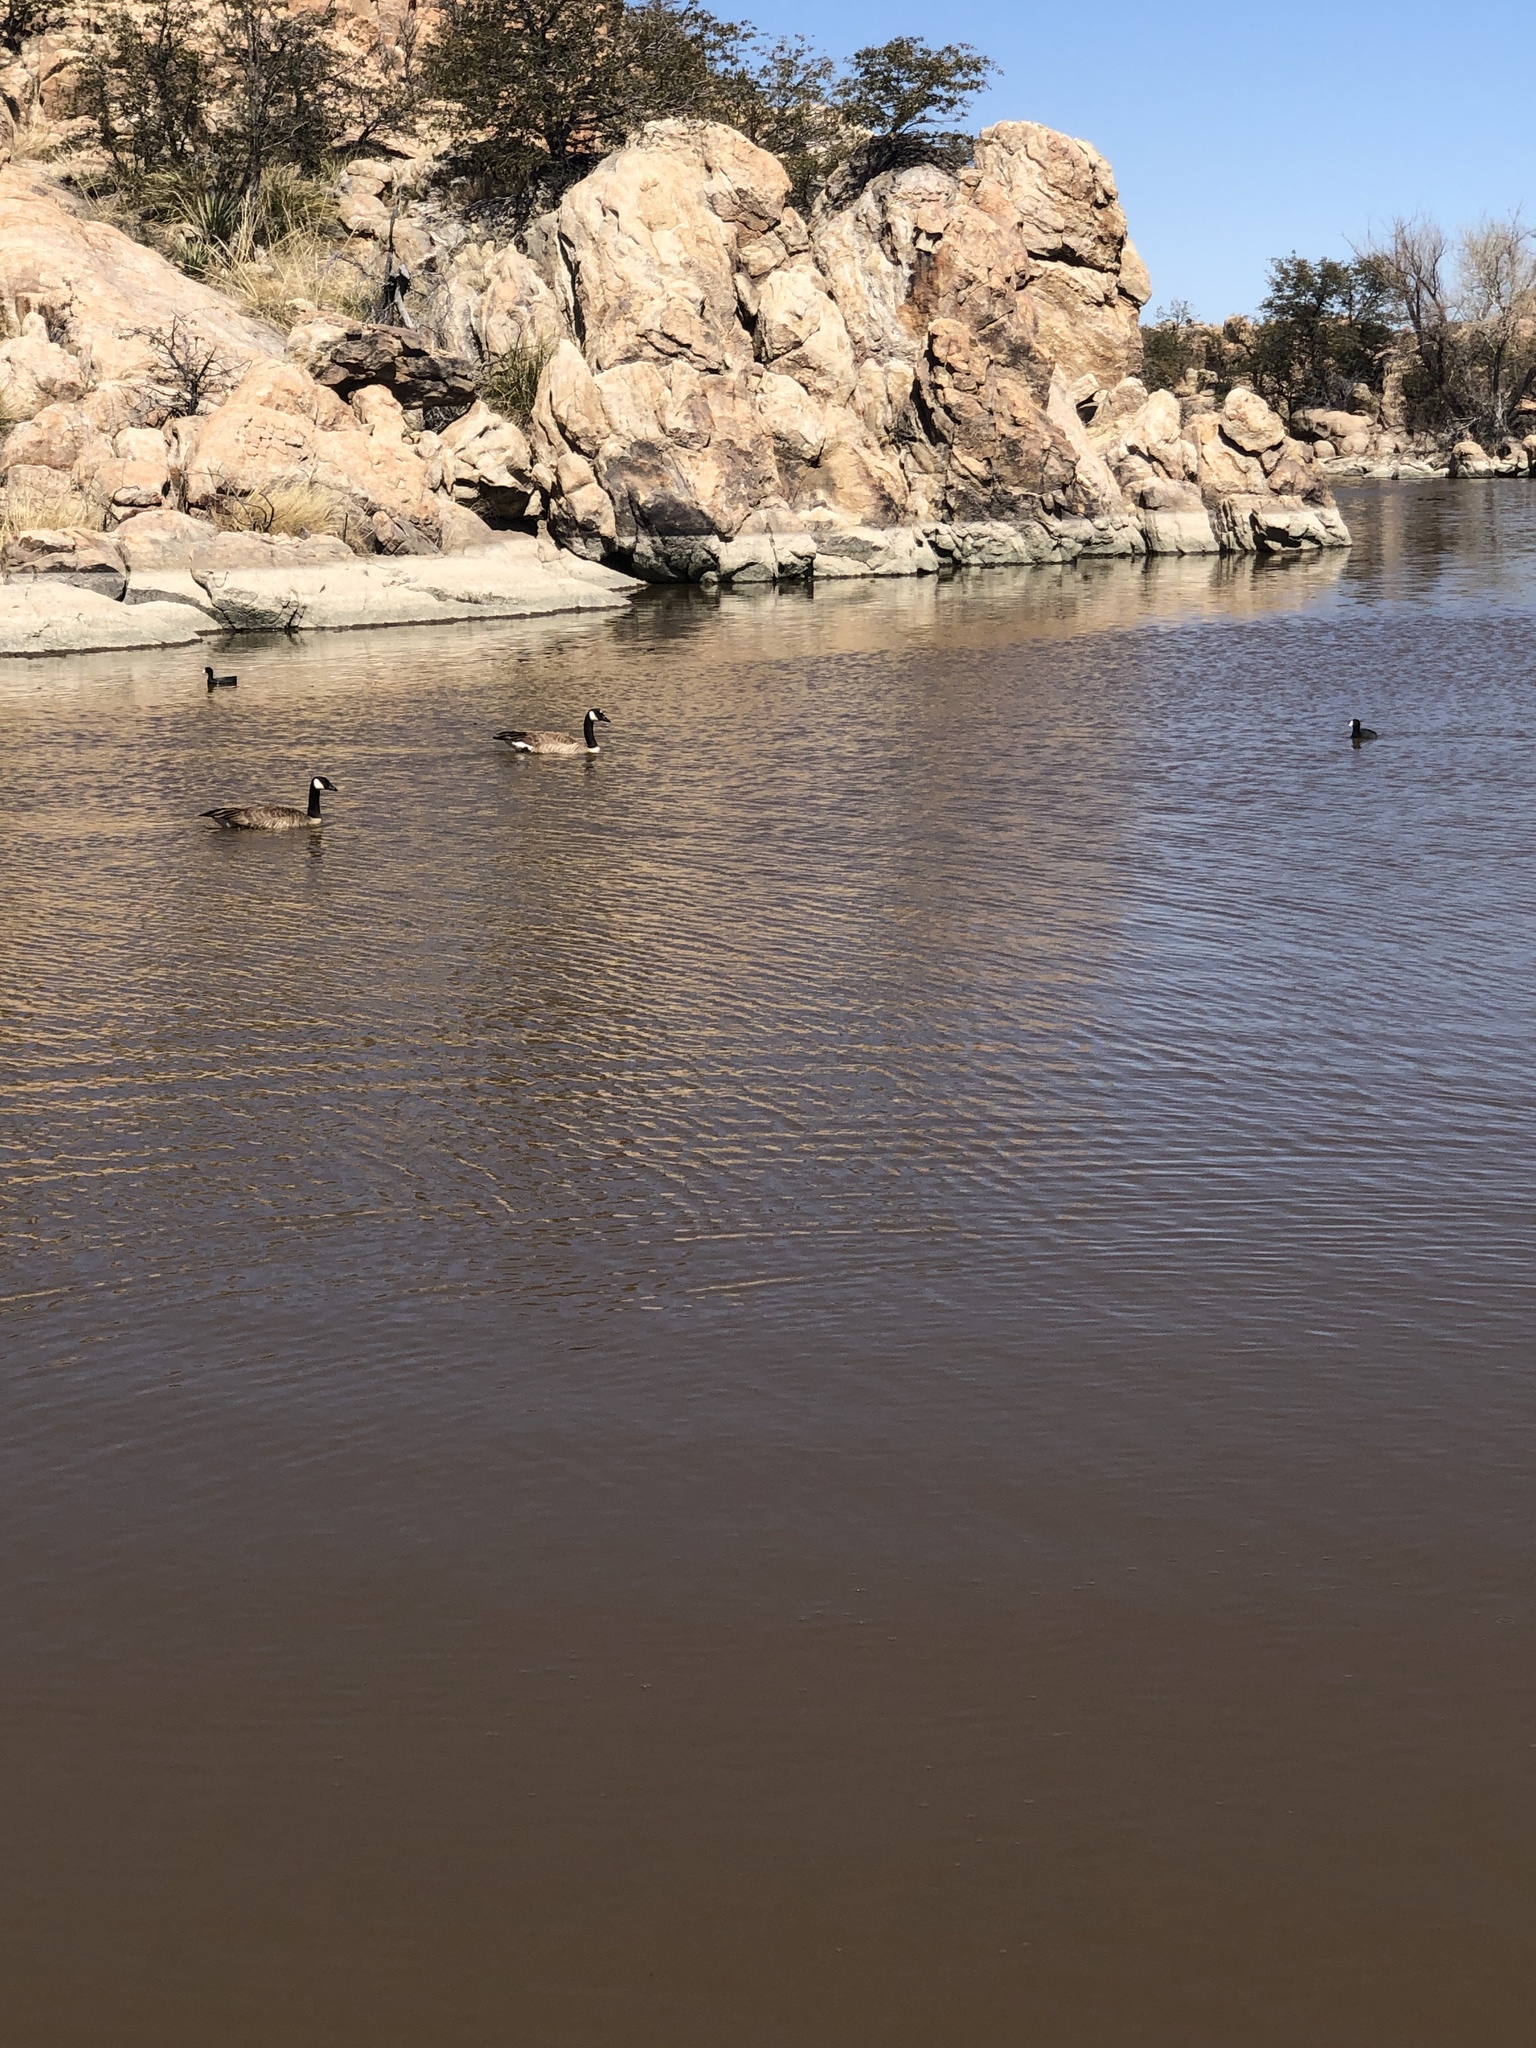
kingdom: Animalia
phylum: Chordata
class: Aves
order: Anseriformes
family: Anatidae
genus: Branta
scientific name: Branta canadensis
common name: Canada goose
